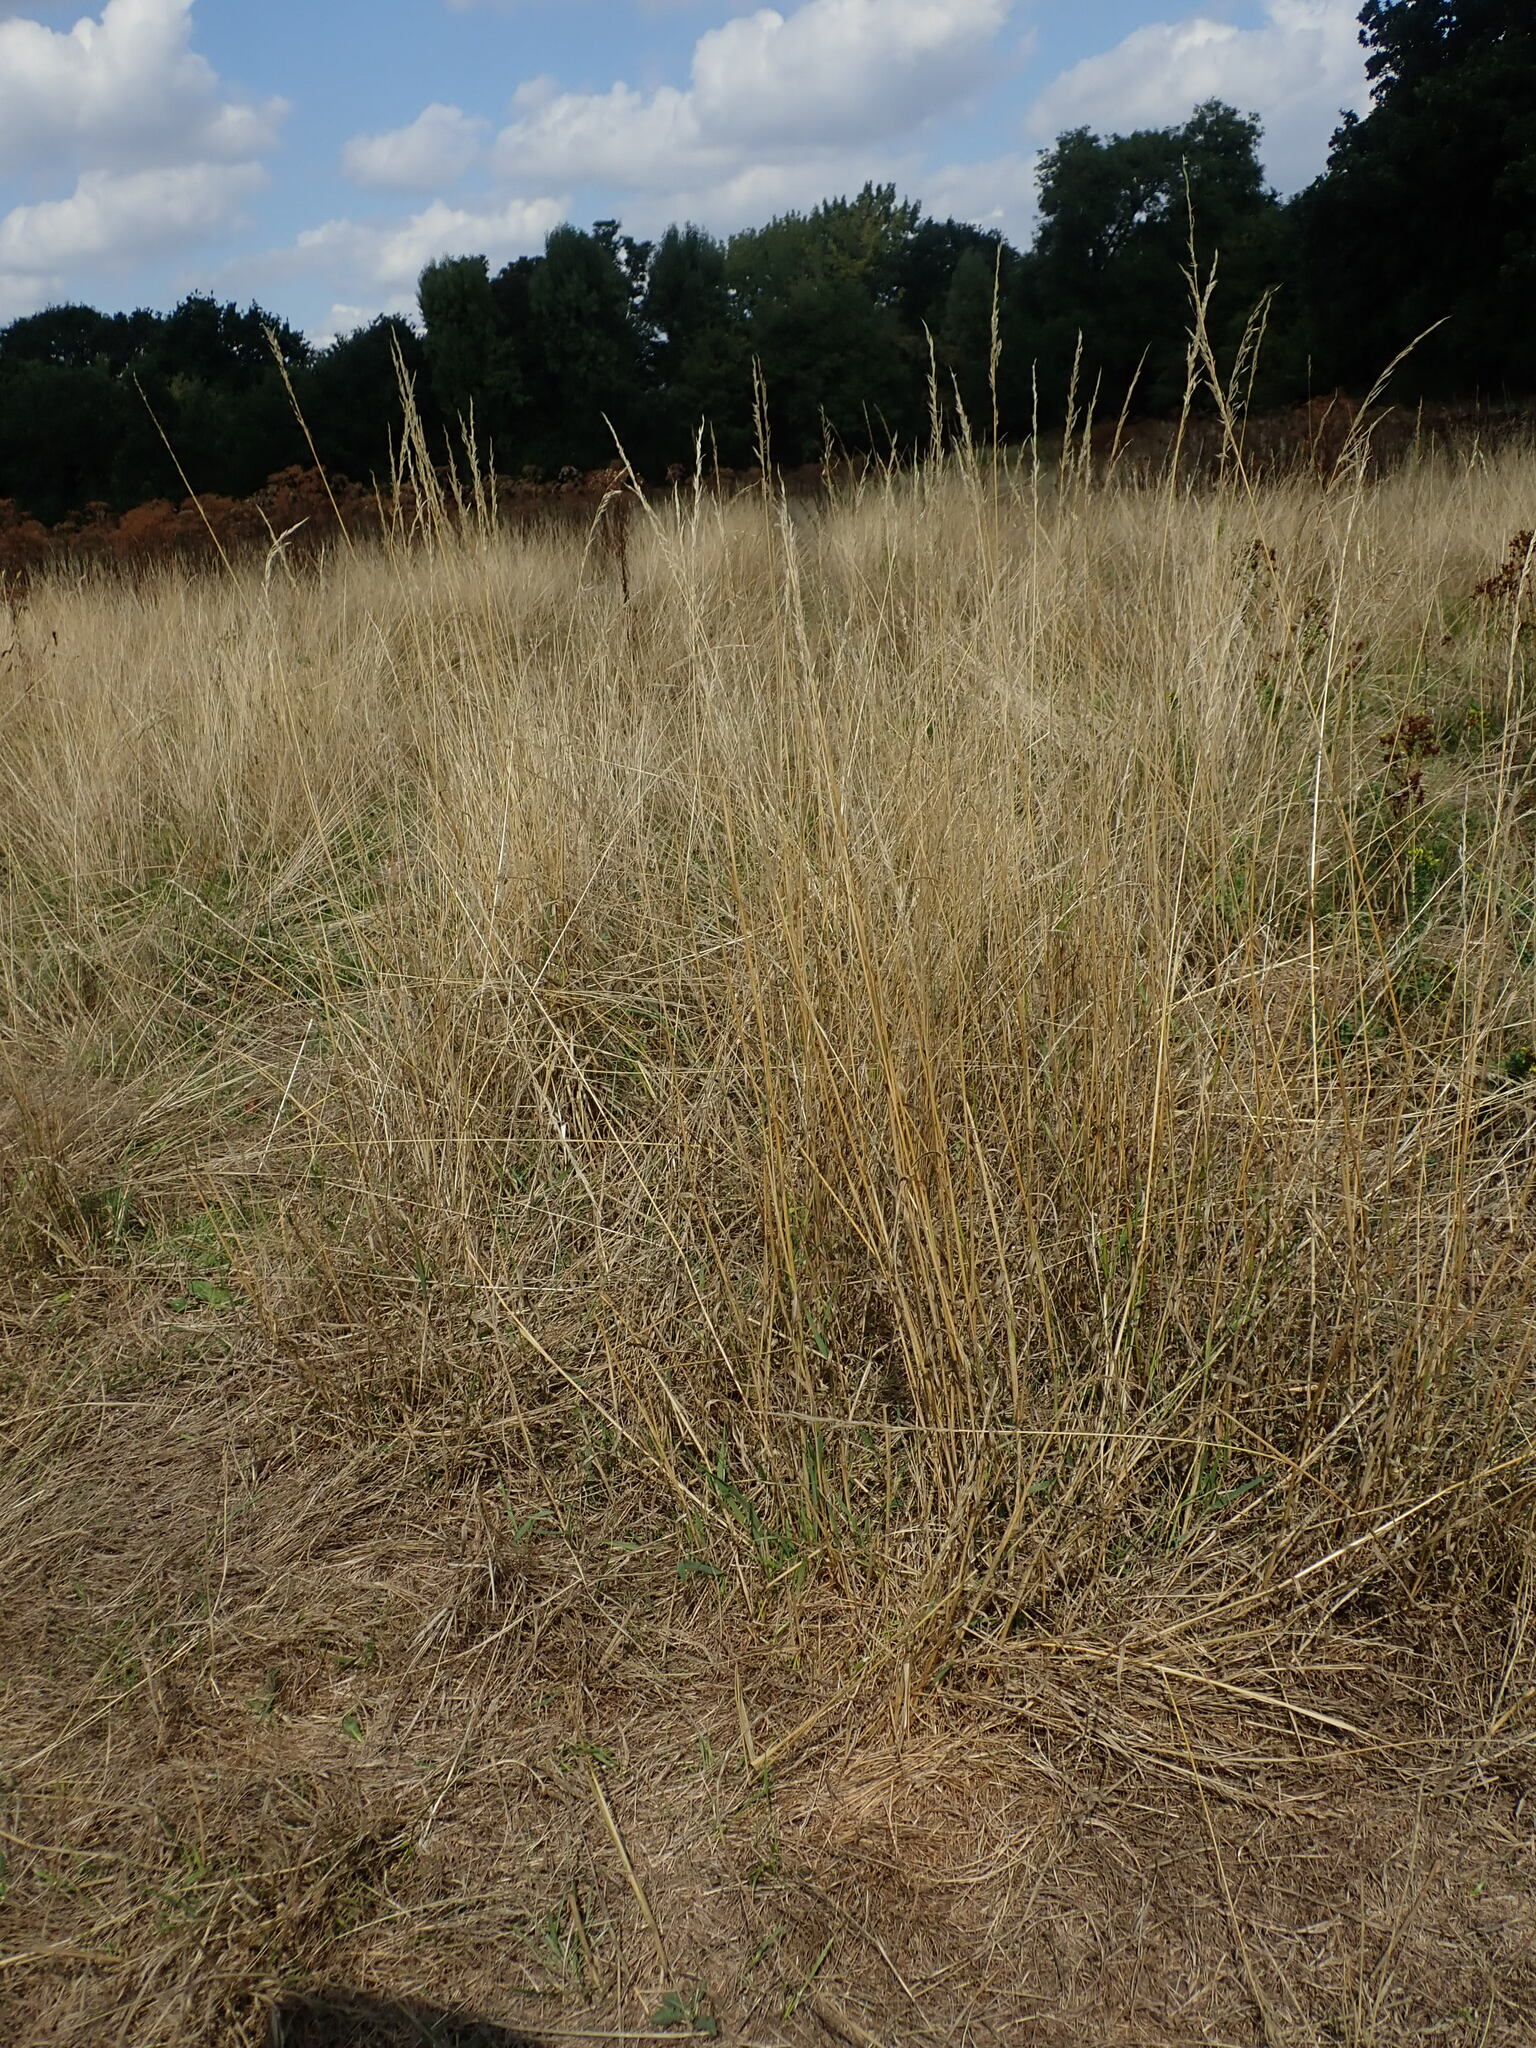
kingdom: Plantae
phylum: Tracheophyta
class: Liliopsida
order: Poales
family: Poaceae
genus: Arrhenatherum
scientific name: Arrhenatherum elatius
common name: Tall oatgrass
